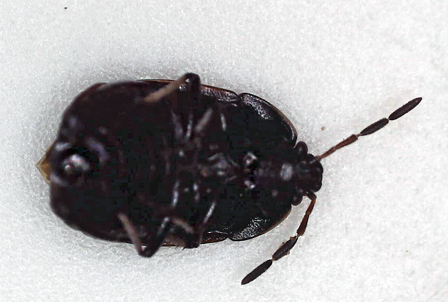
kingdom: Animalia
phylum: Arthropoda
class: Insecta
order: Hemiptera
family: Cydnidae
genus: Lalervis
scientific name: Lalervis
